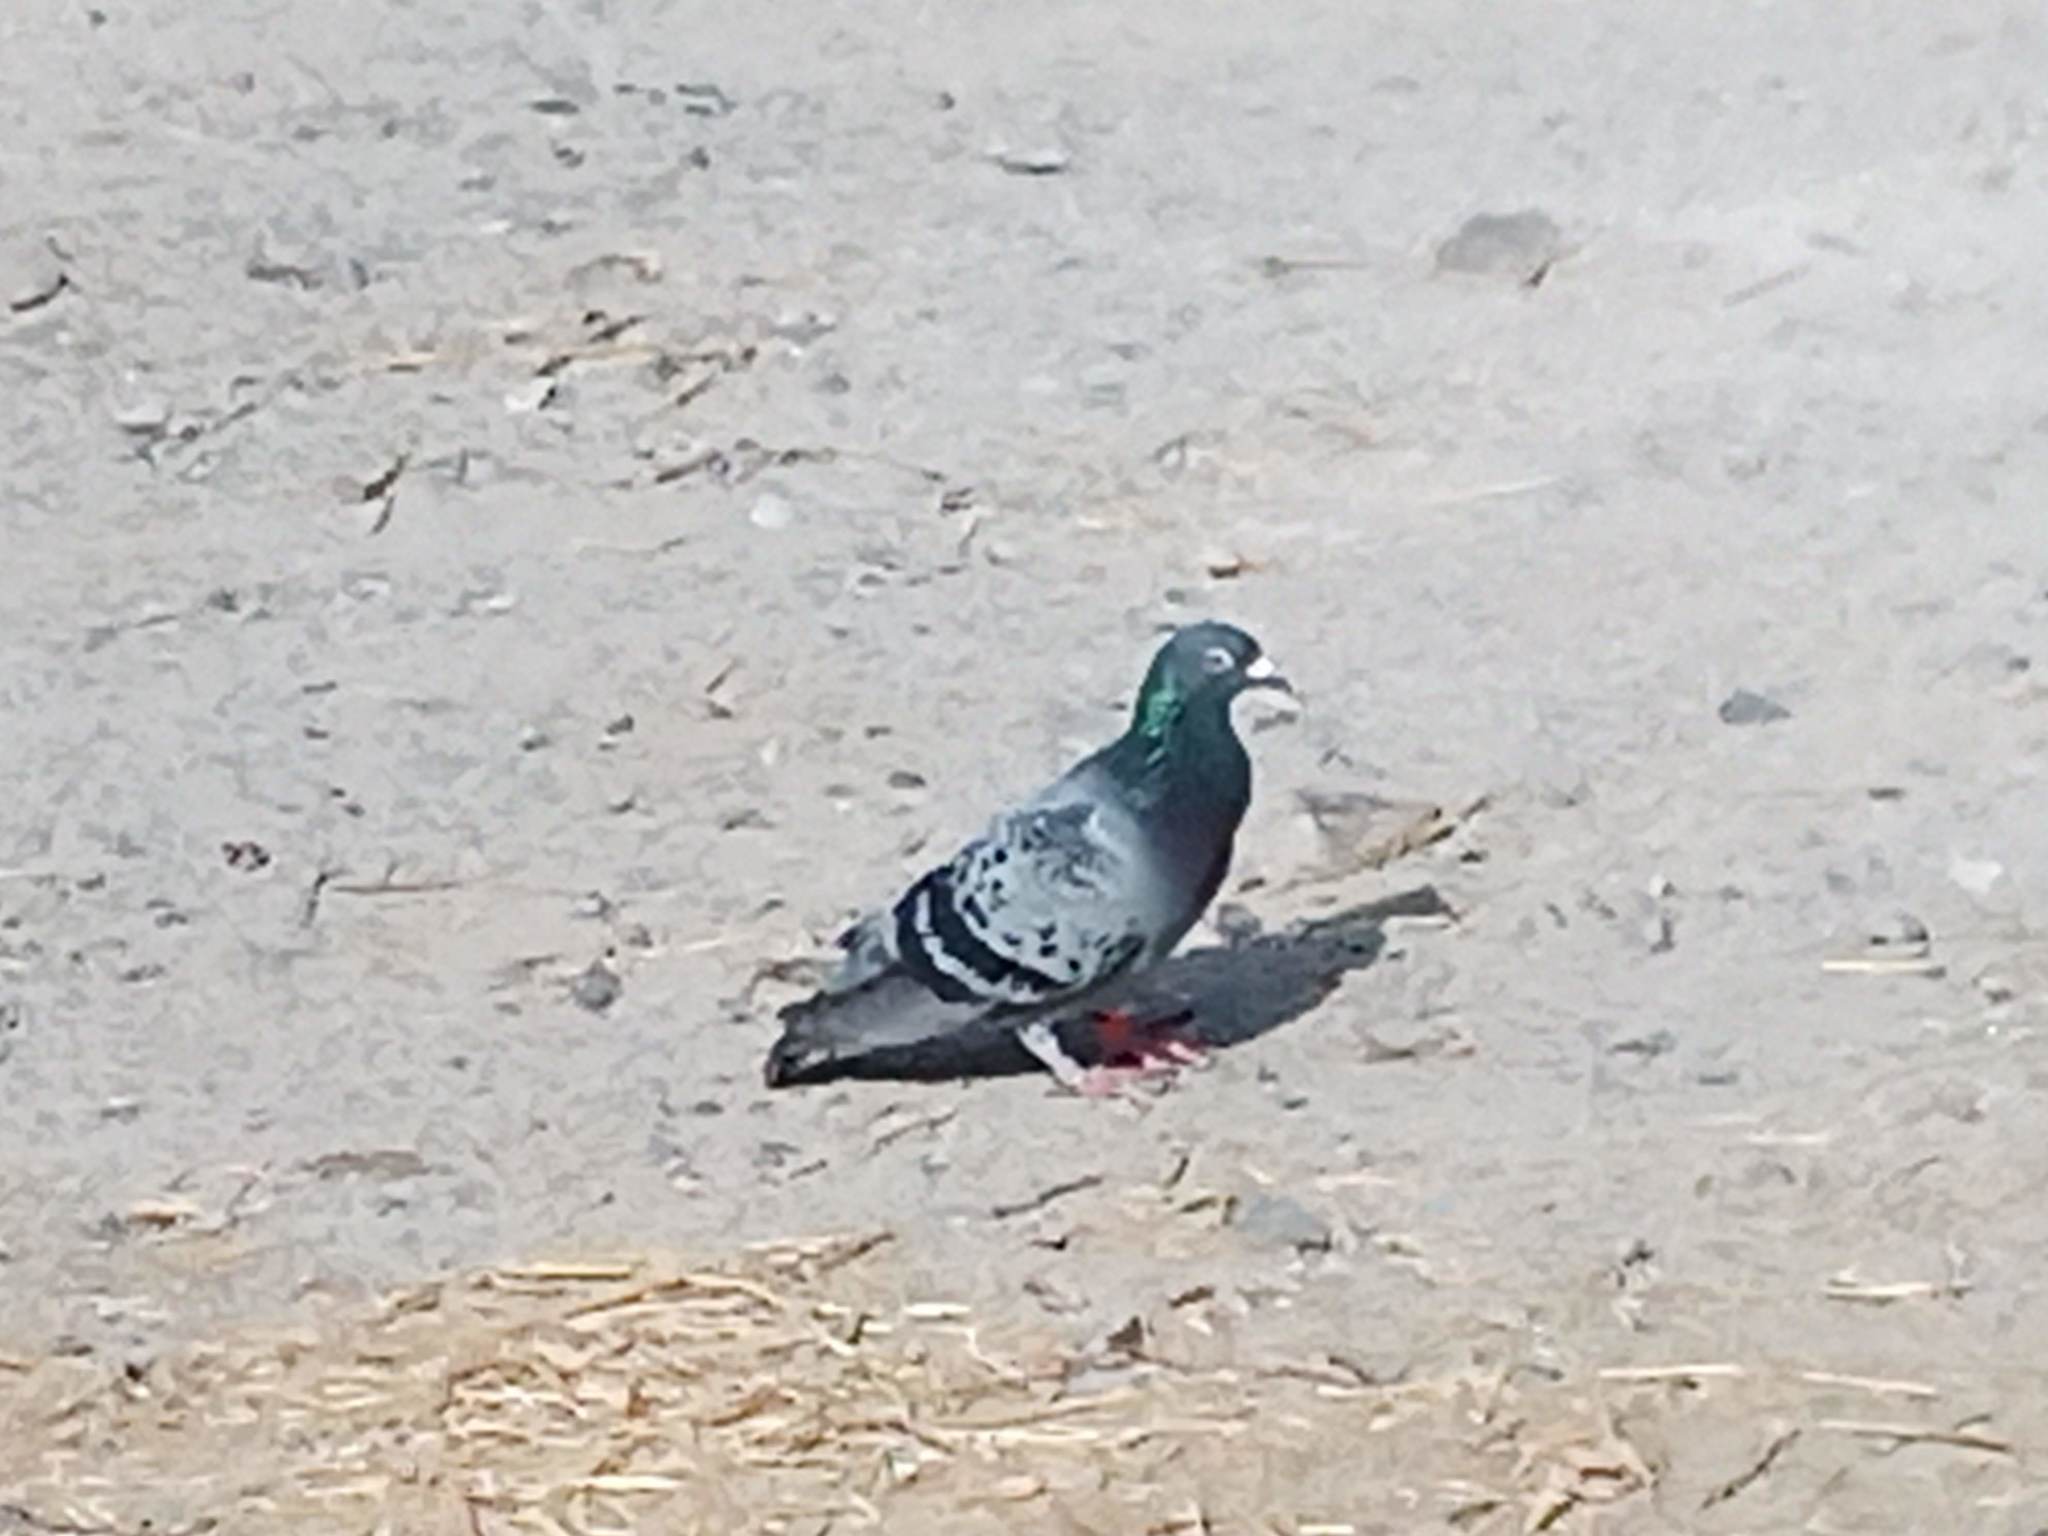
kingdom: Animalia
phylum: Chordata
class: Aves
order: Columbiformes
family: Columbidae
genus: Columba
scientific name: Columba livia
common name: Rock pigeon
